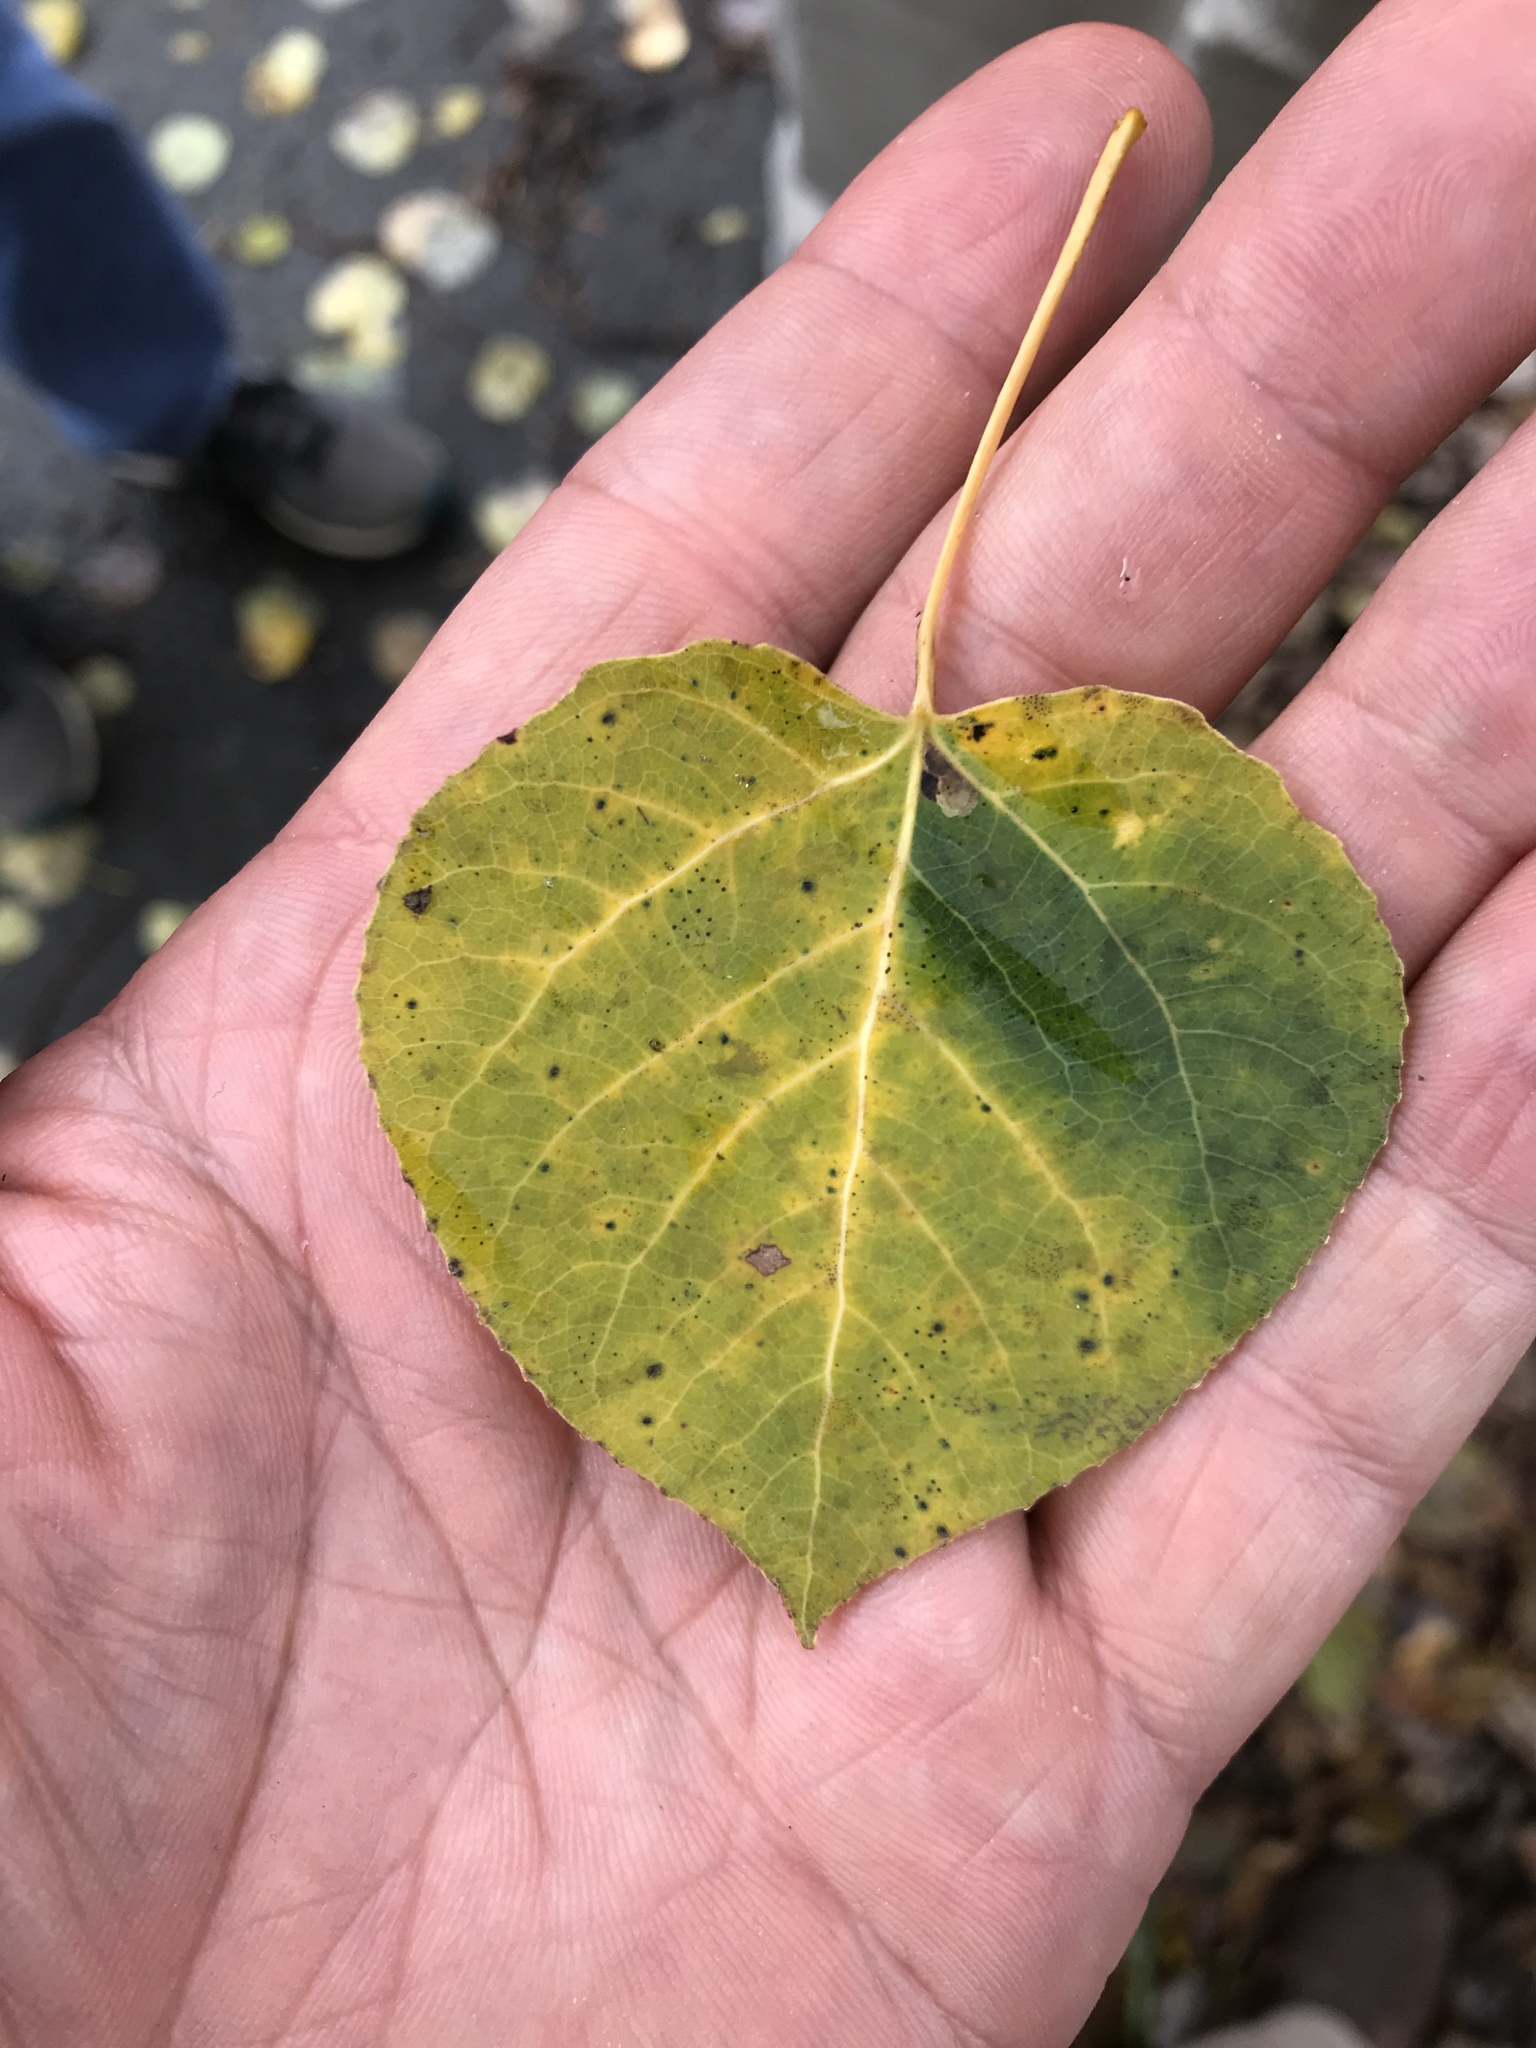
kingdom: Plantae
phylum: Tracheophyta
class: Magnoliopsida
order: Malpighiales
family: Salicaceae
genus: Populus
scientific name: Populus tremuloides
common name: Quaking aspen
